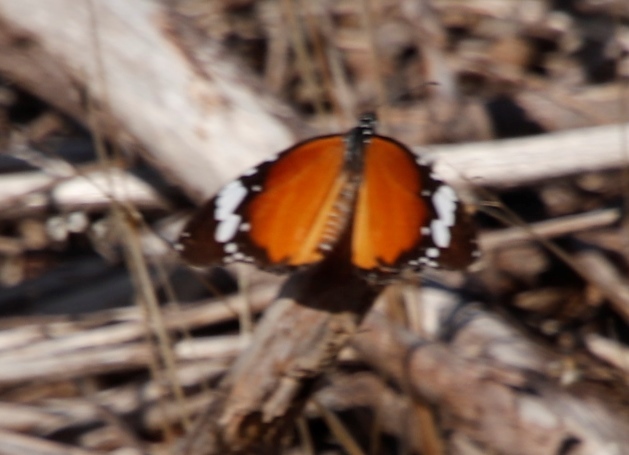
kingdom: Animalia
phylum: Arthropoda
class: Insecta
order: Lepidoptera
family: Nymphalidae
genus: Danaus
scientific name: Danaus chrysippus
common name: Plain tiger
